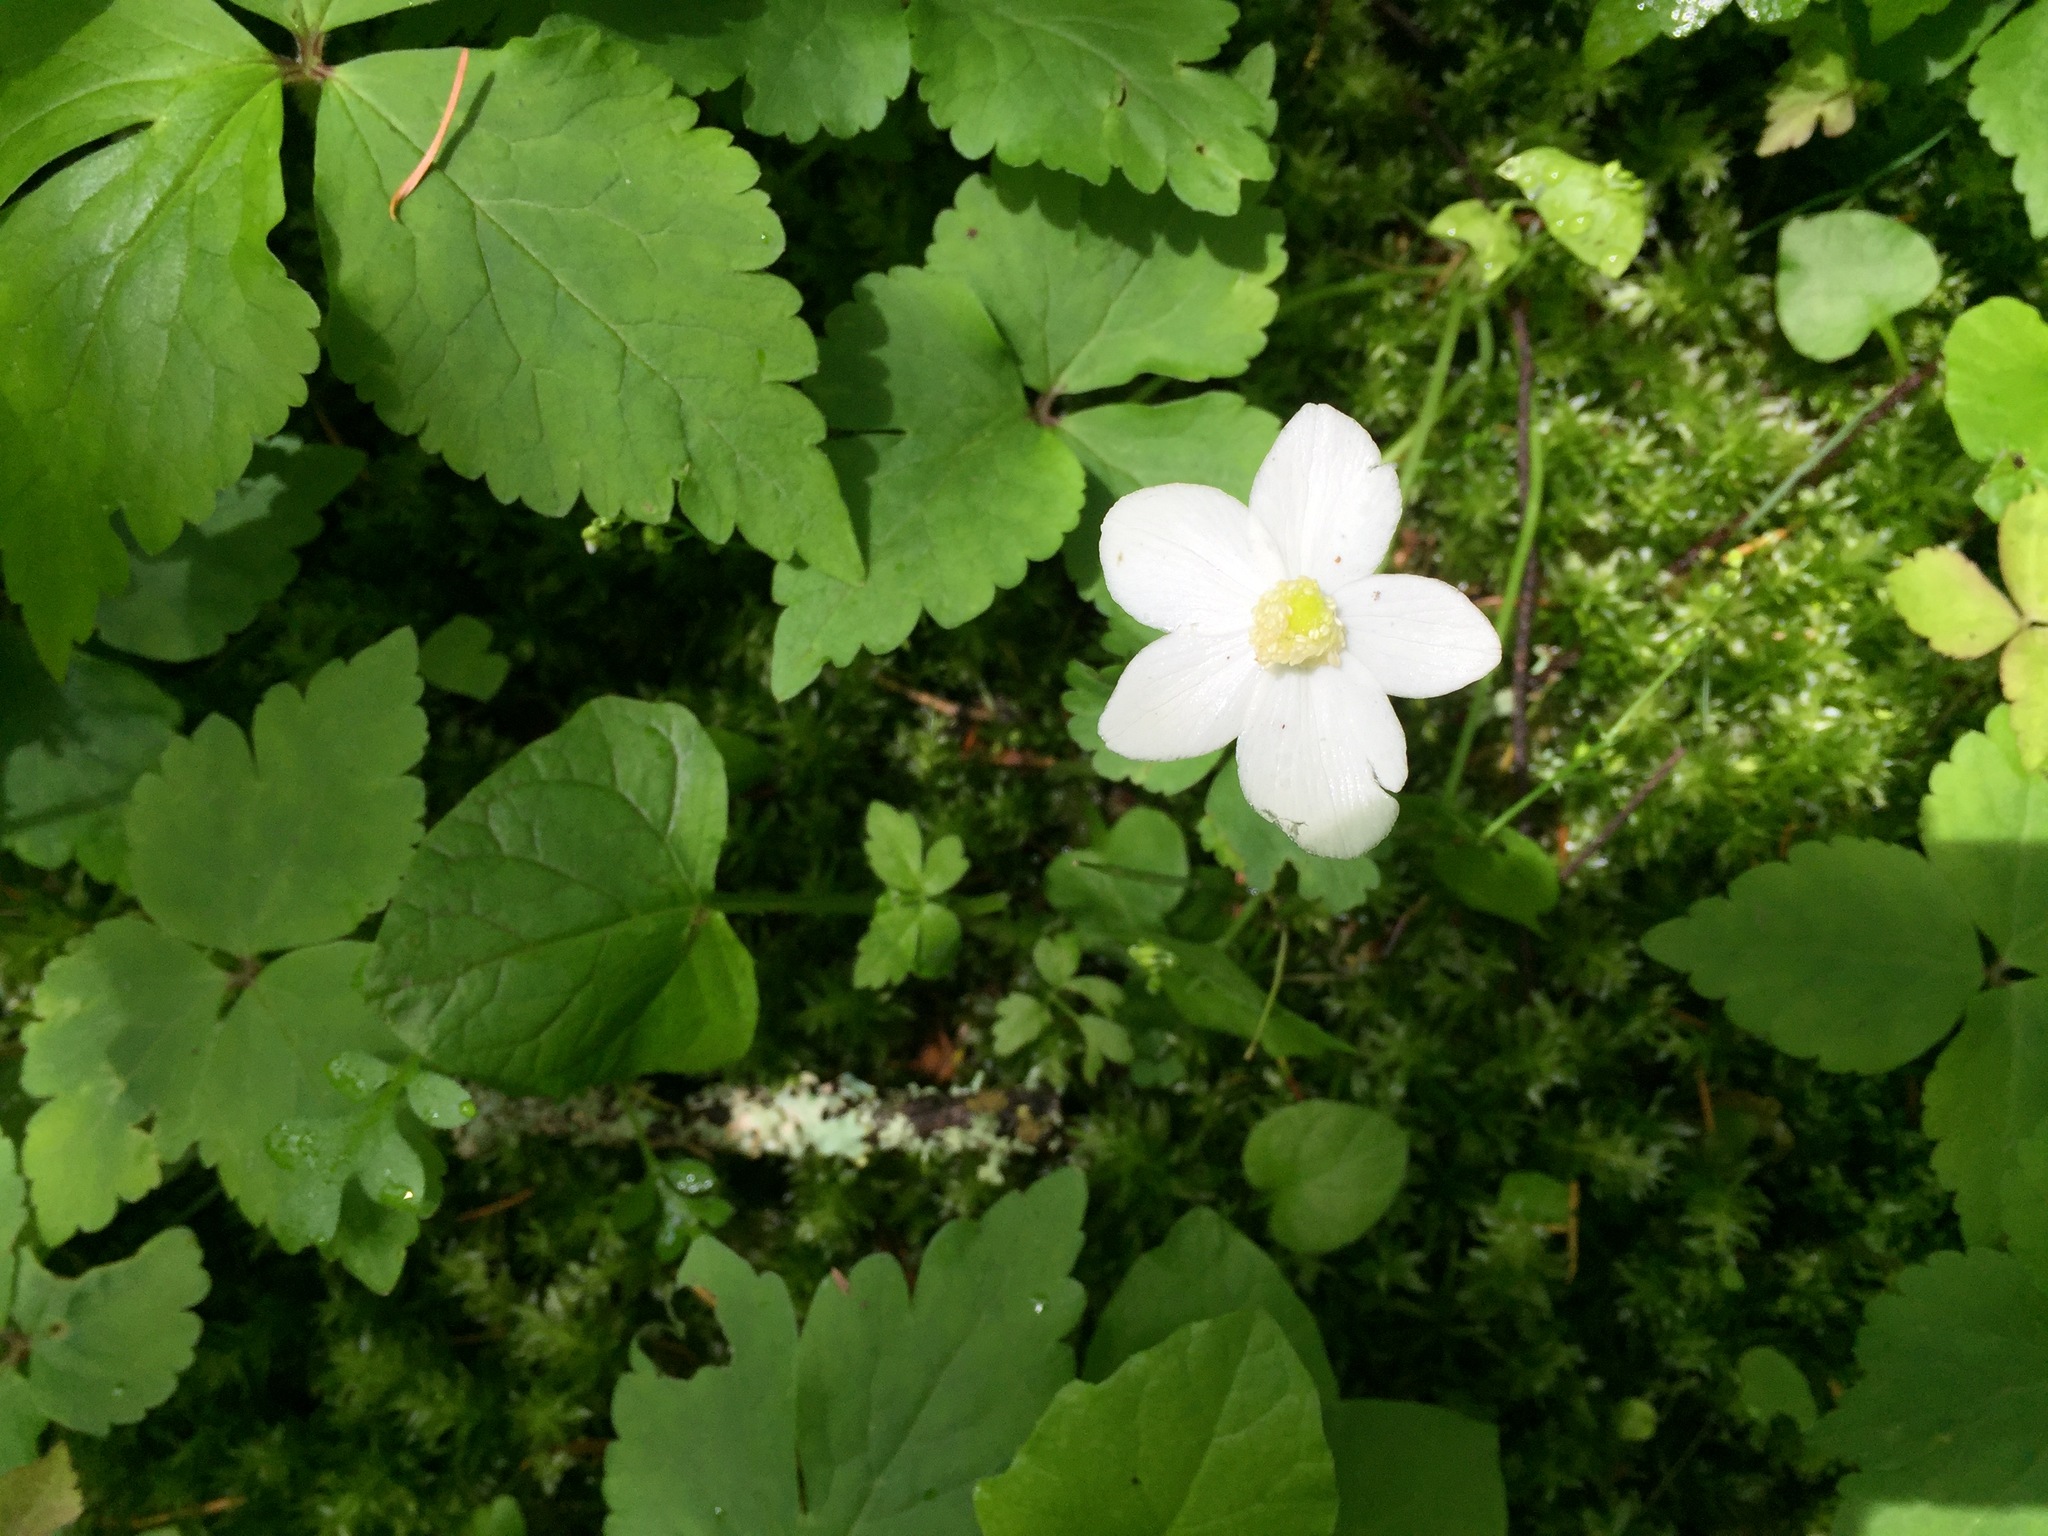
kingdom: Plantae
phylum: Tracheophyta
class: Magnoliopsida
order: Ranunculales
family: Ranunculaceae
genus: Anemonastrum
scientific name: Anemonastrum deltoideum
